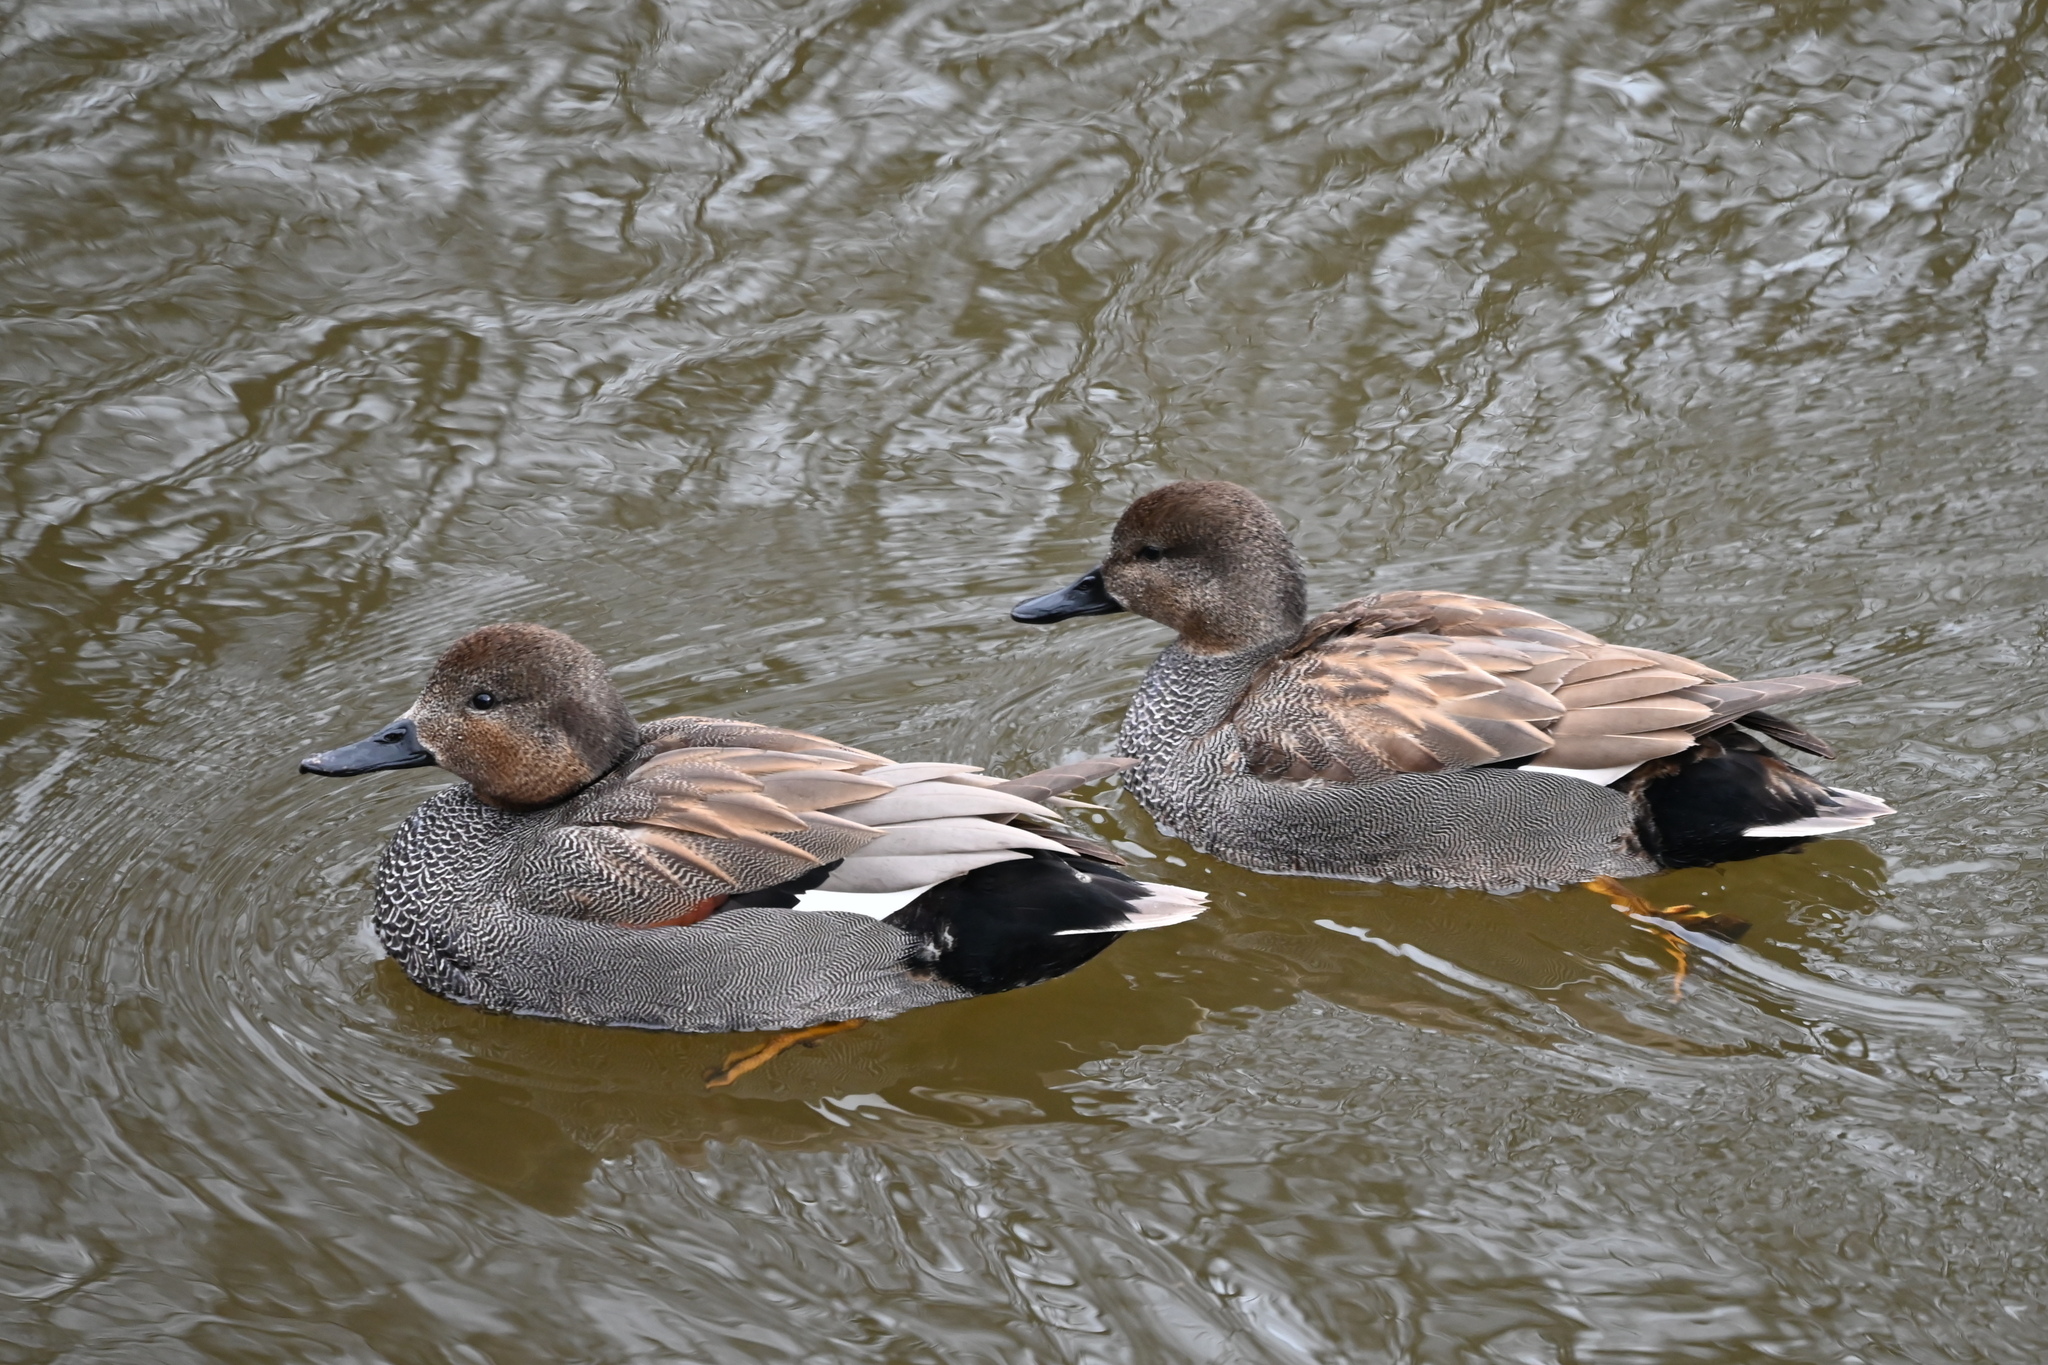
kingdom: Animalia
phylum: Chordata
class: Aves
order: Anseriformes
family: Anatidae
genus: Mareca
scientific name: Mareca strepera
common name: Gadwall
